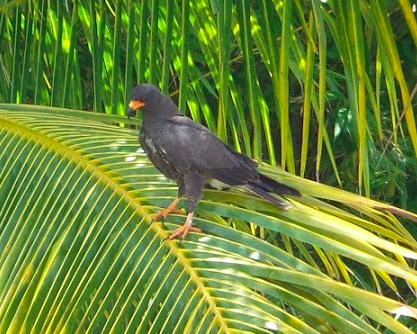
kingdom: Animalia
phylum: Chordata
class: Aves
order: Accipitriformes
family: Accipitridae
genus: Rostrhamus
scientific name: Rostrhamus sociabilis
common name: Snail kite
